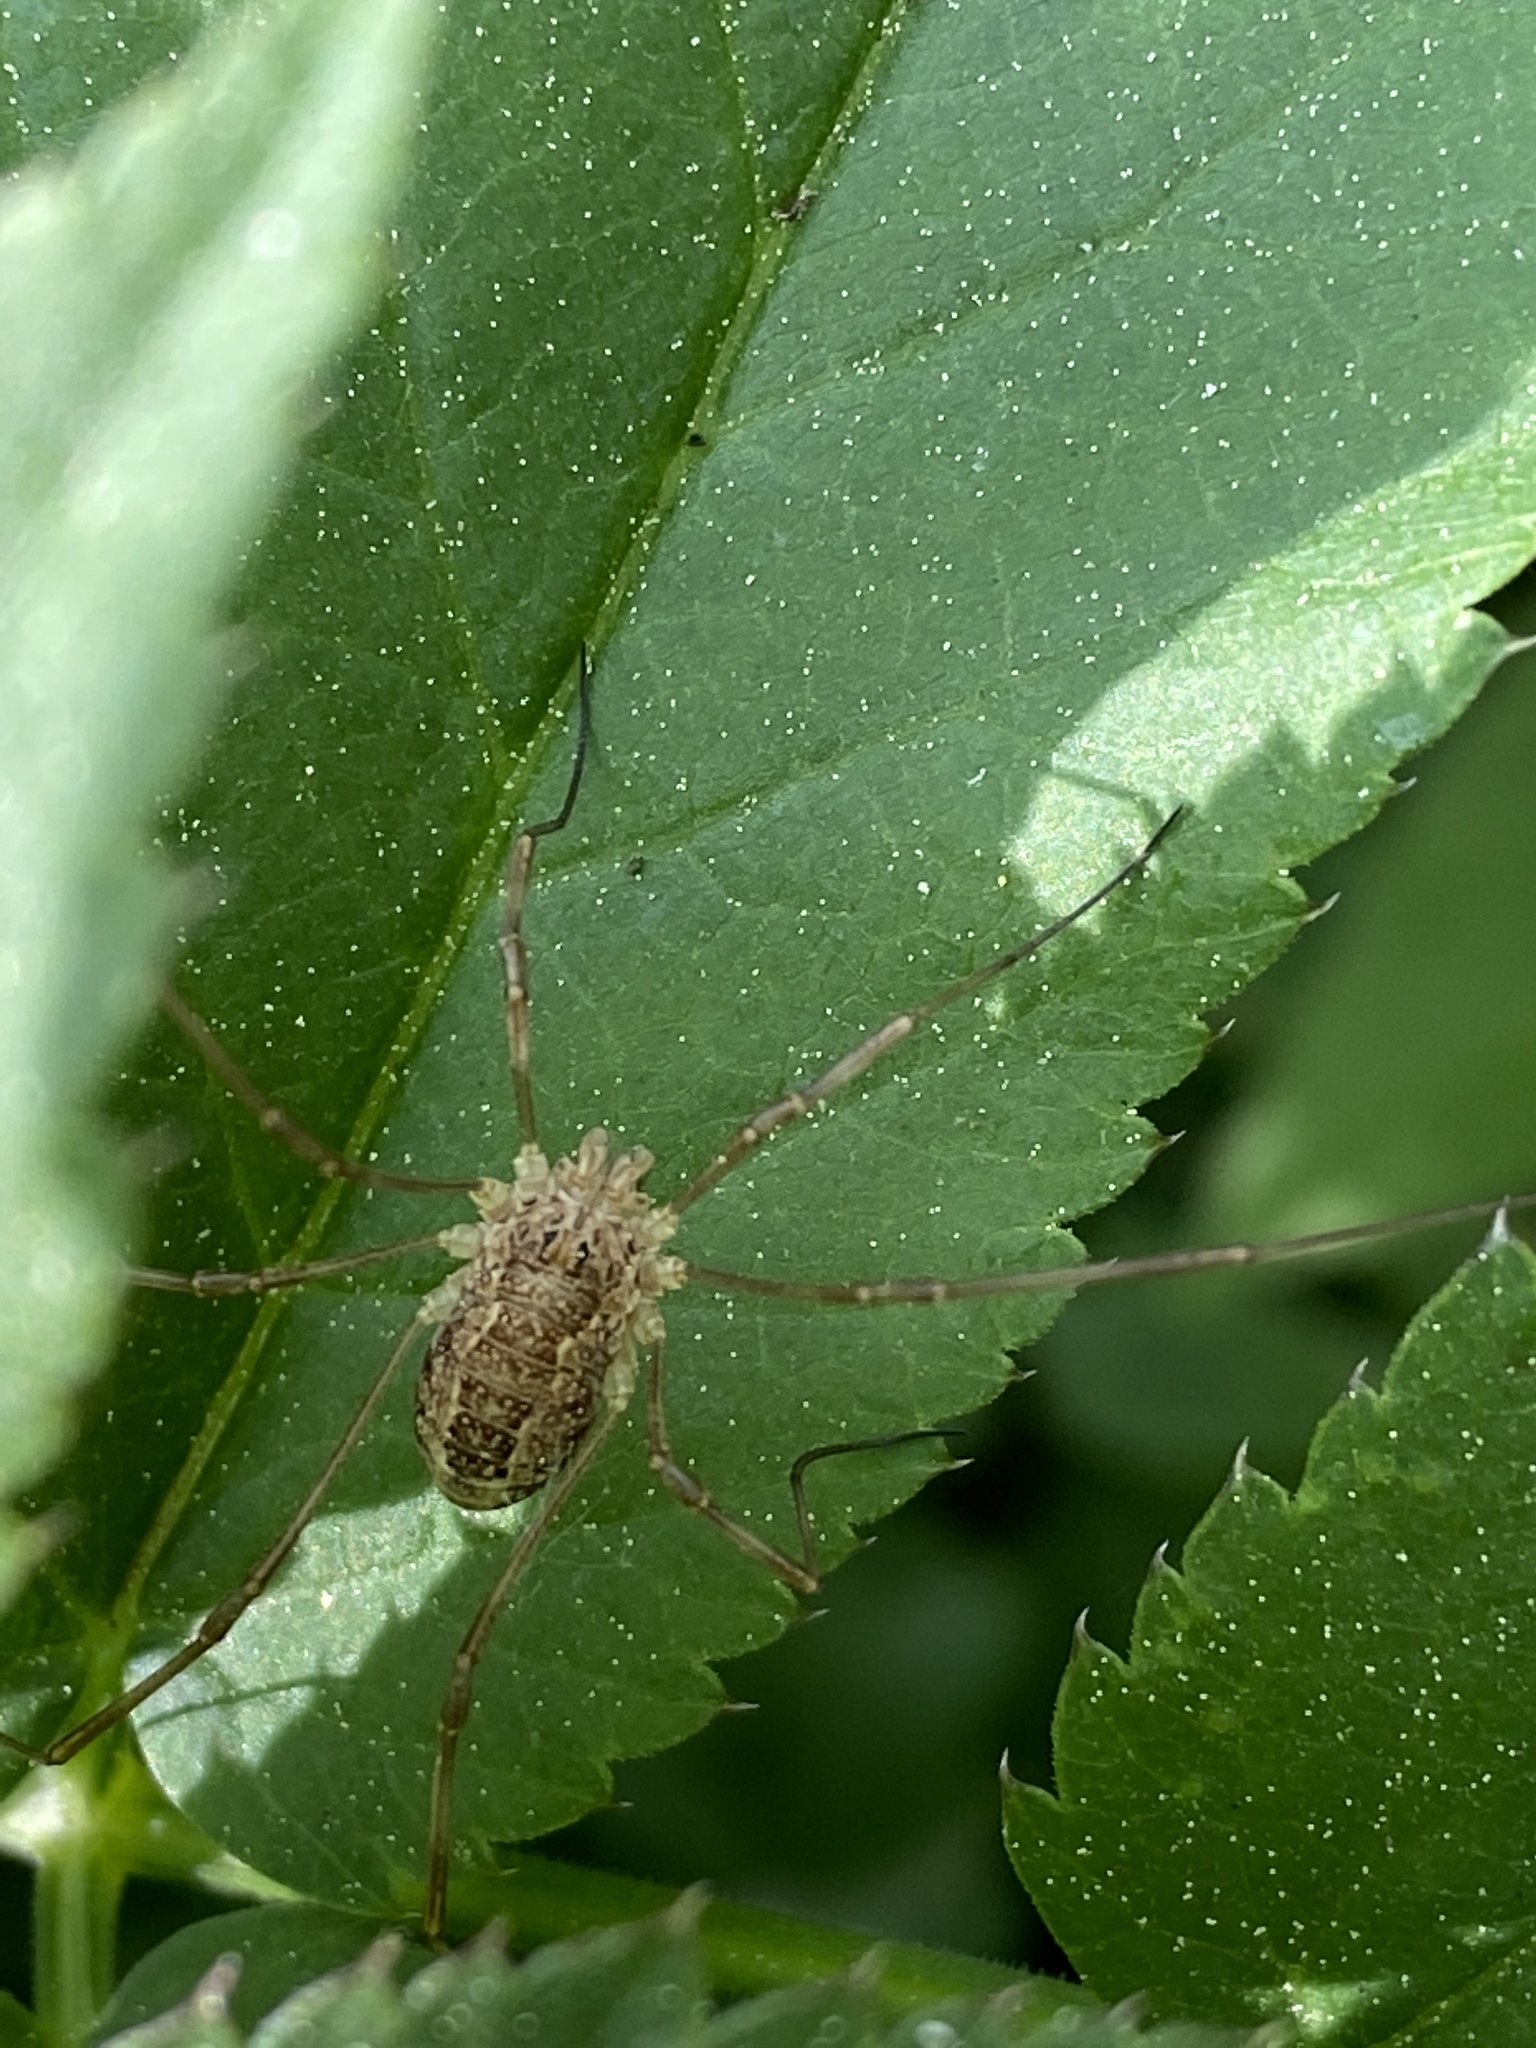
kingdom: Animalia
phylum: Arthropoda
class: Arachnida
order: Opiliones
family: Phalangiidae
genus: Rilaena
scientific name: Rilaena triangularis
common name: Spring harvestman
